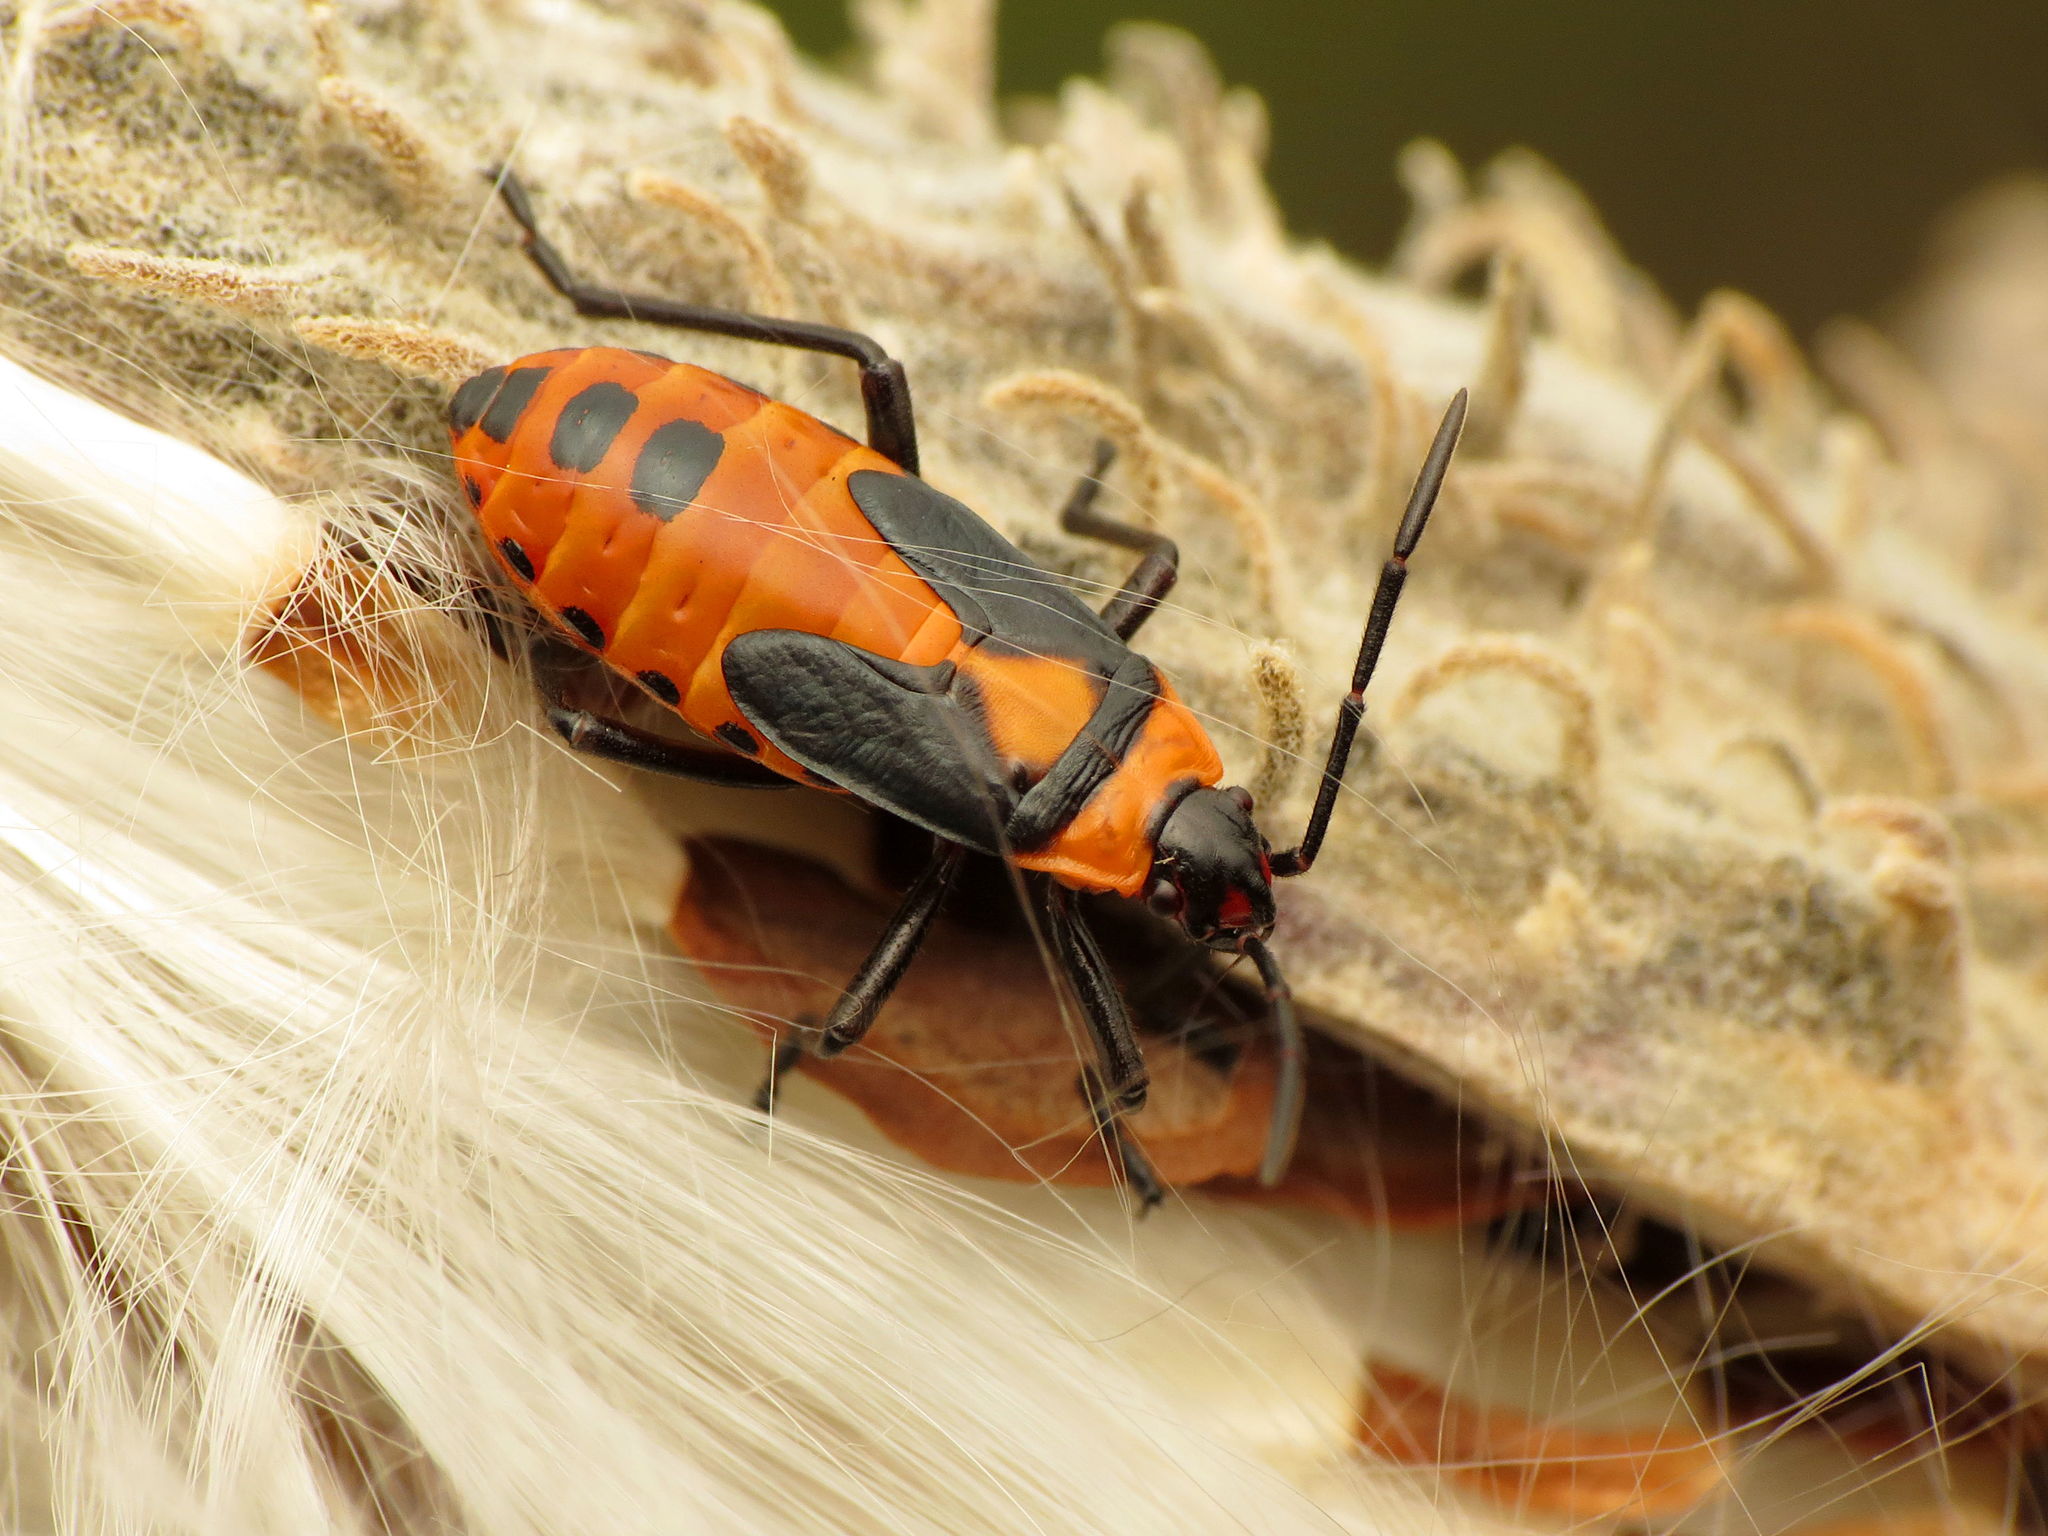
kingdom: Animalia
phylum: Arthropoda
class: Insecta
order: Hemiptera
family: Lygaeidae
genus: Oncopeltus
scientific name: Oncopeltus fasciatus
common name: Large milkweed bug
